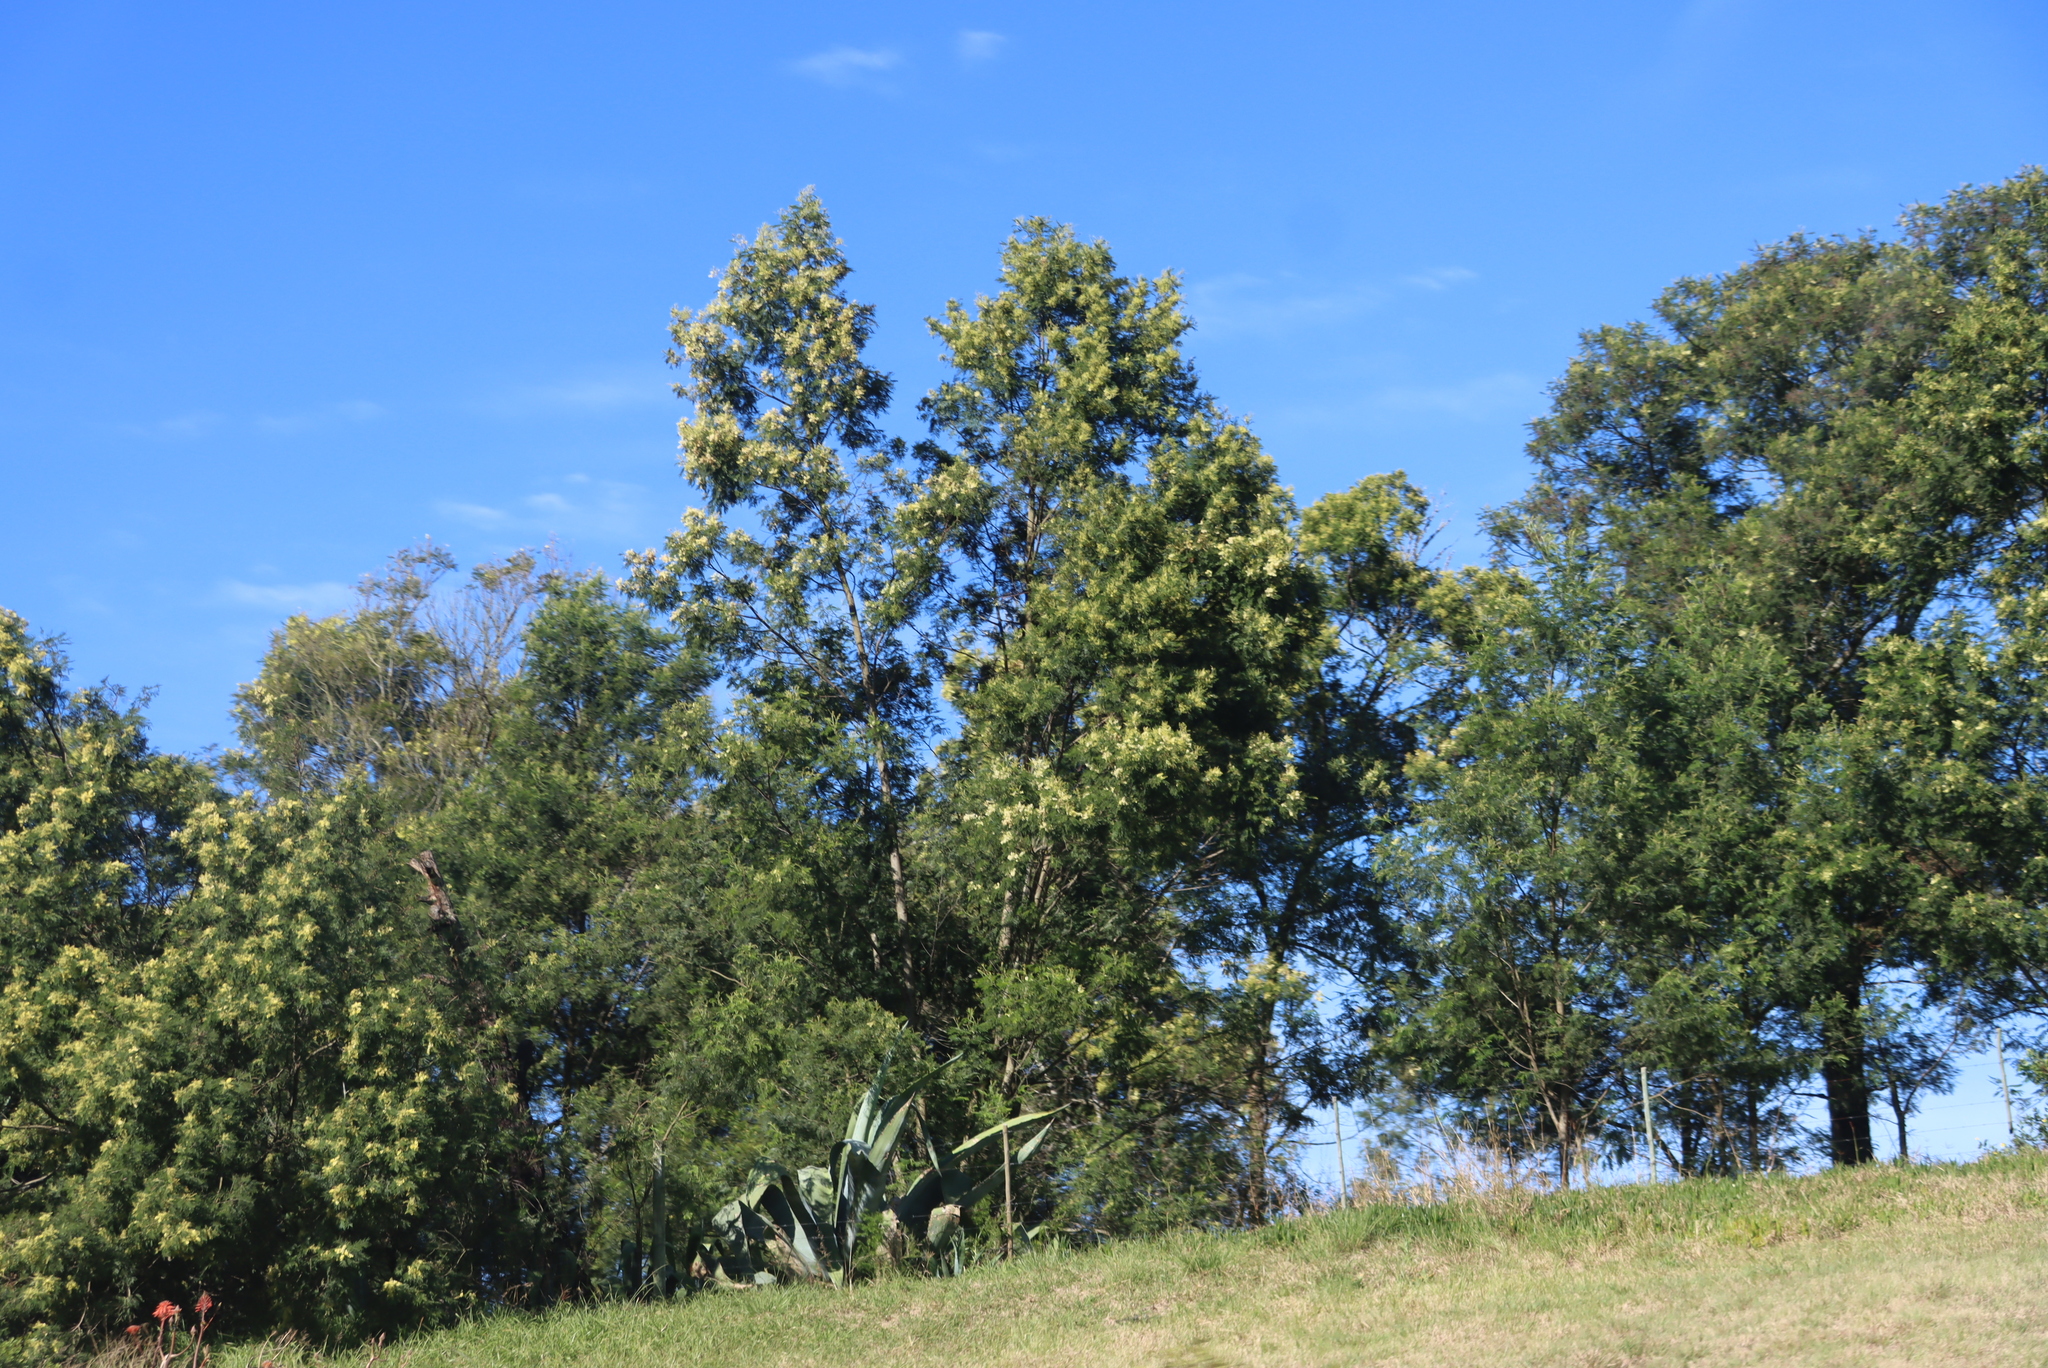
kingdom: Plantae
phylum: Tracheophyta
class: Magnoliopsida
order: Fabales
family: Fabaceae
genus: Acacia
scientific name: Acacia mearnsii
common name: Black wattle
